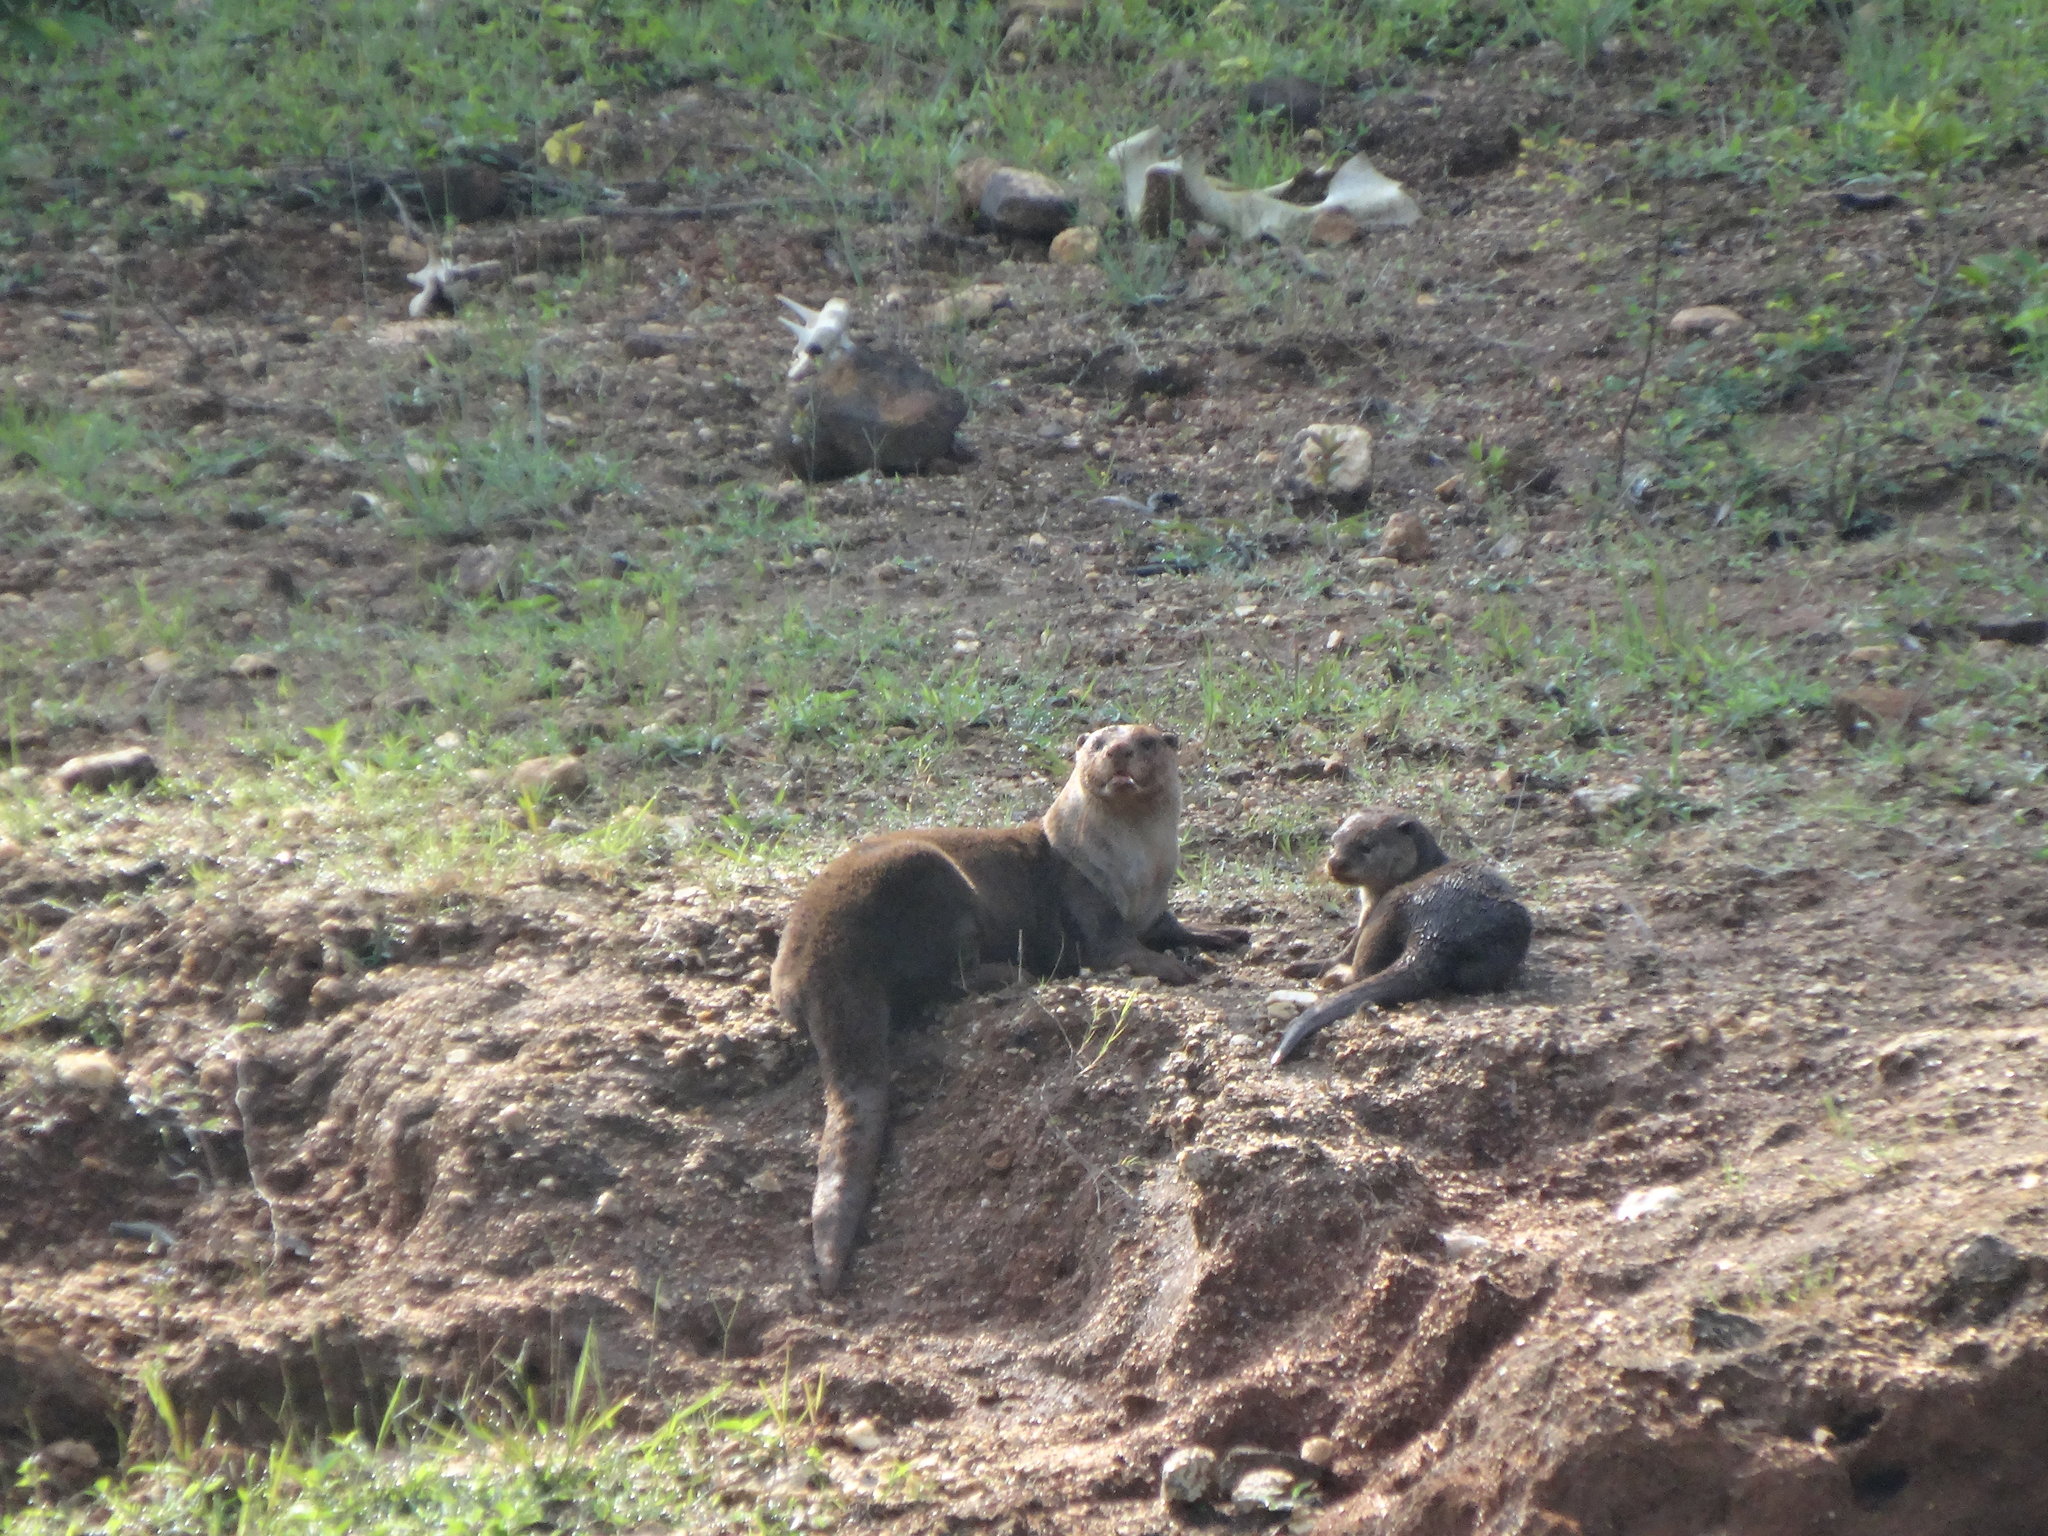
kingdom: Animalia
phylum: Chordata
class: Mammalia
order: Carnivora
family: Mustelidae
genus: Lutrogale
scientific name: Lutrogale perspicillata
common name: Smooth-coated otter
